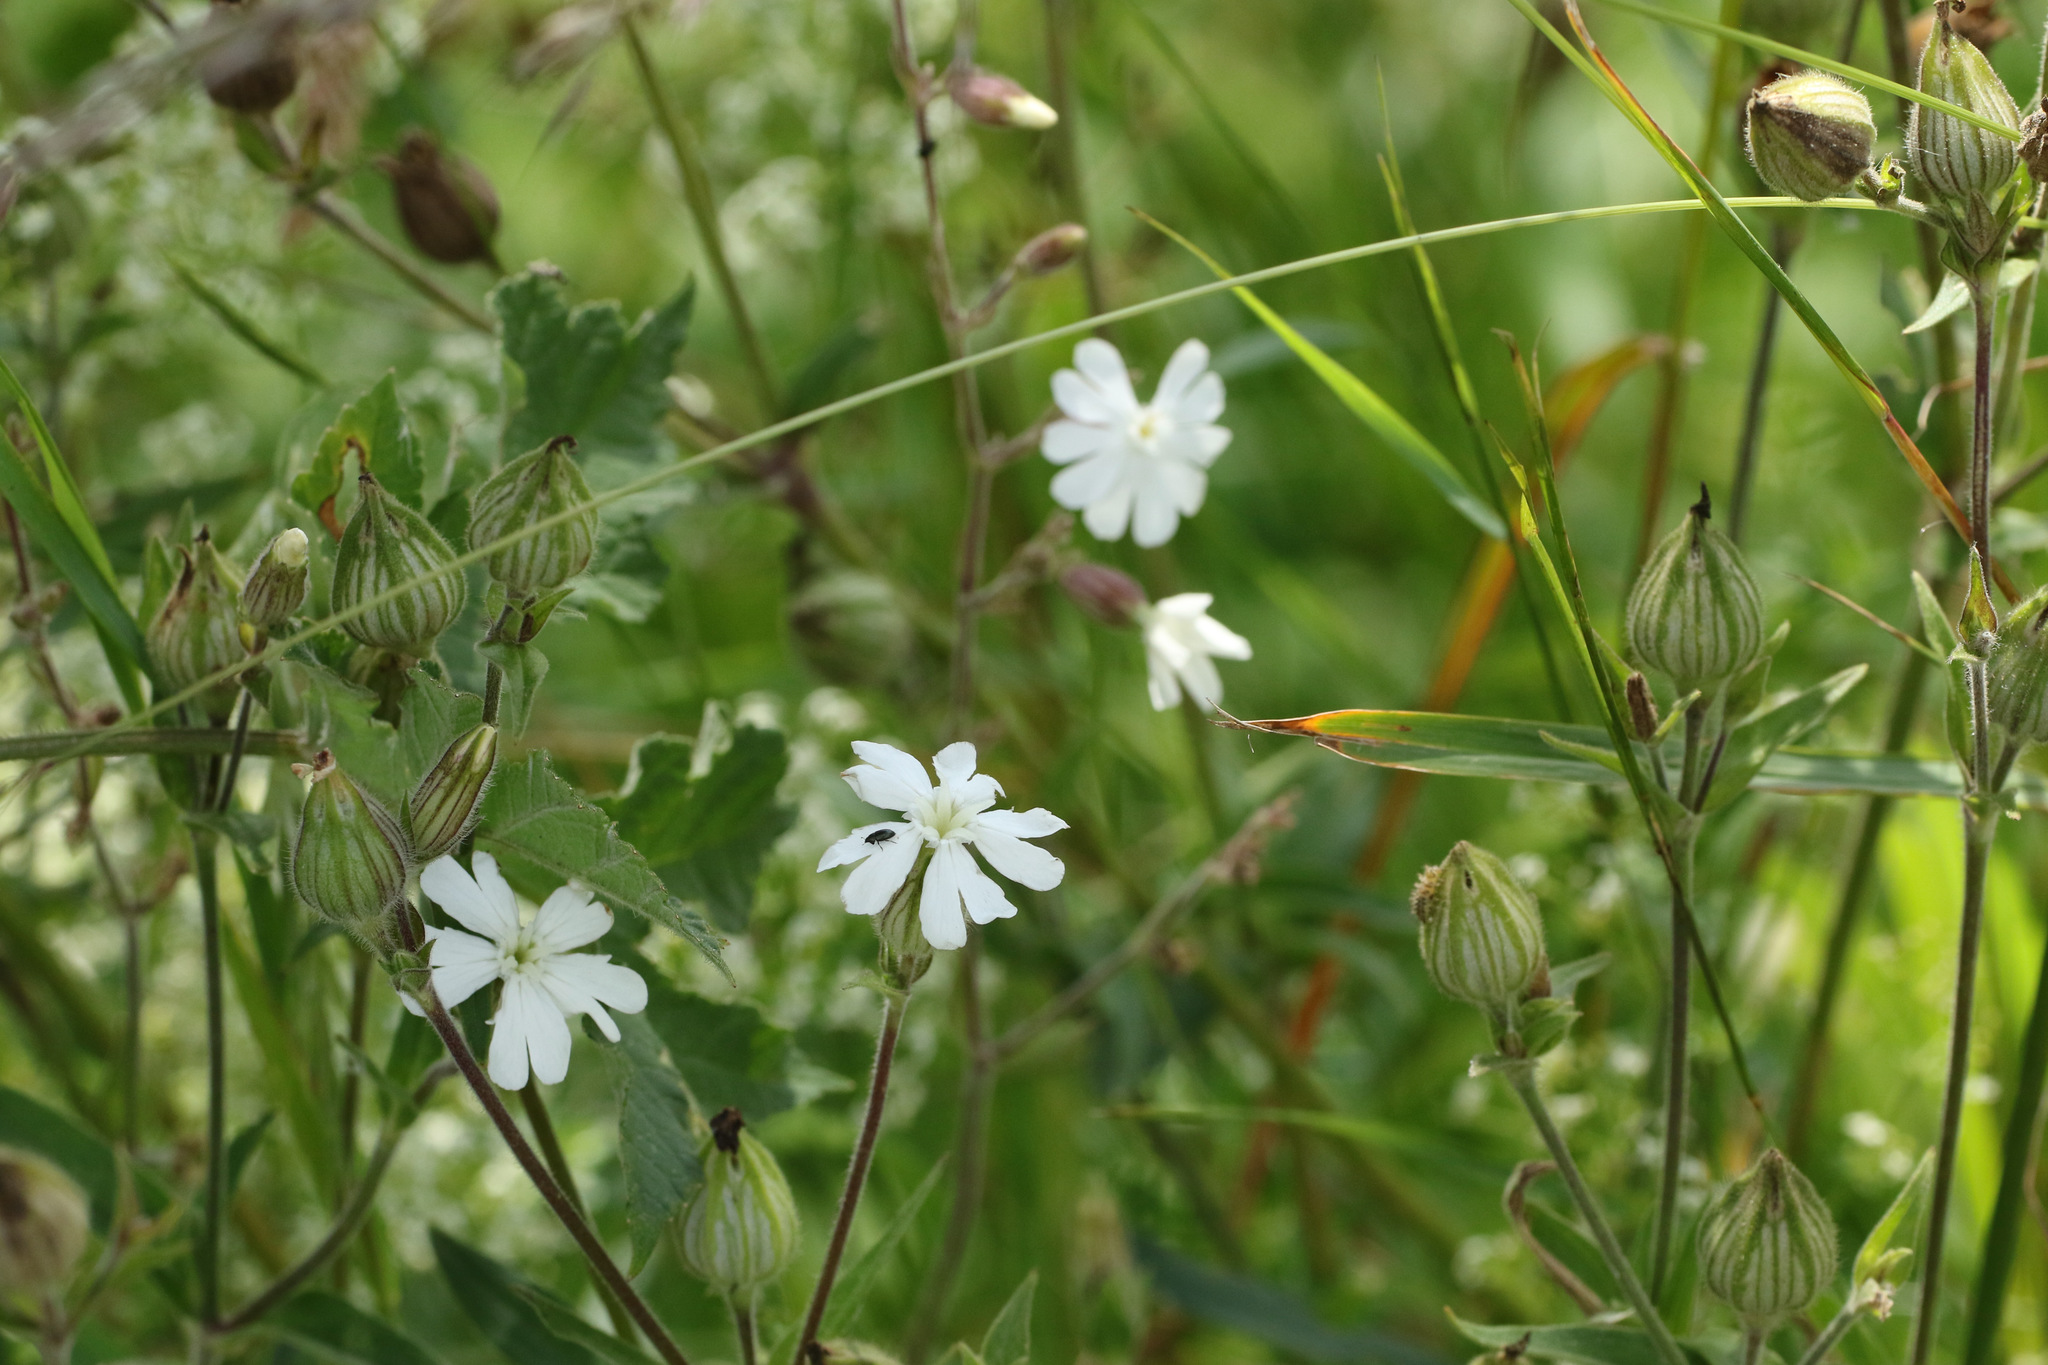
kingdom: Plantae
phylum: Tracheophyta
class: Magnoliopsida
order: Caryophyllales
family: Caryophyllaceae
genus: Silene
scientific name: Silene latifolia
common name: White campion
